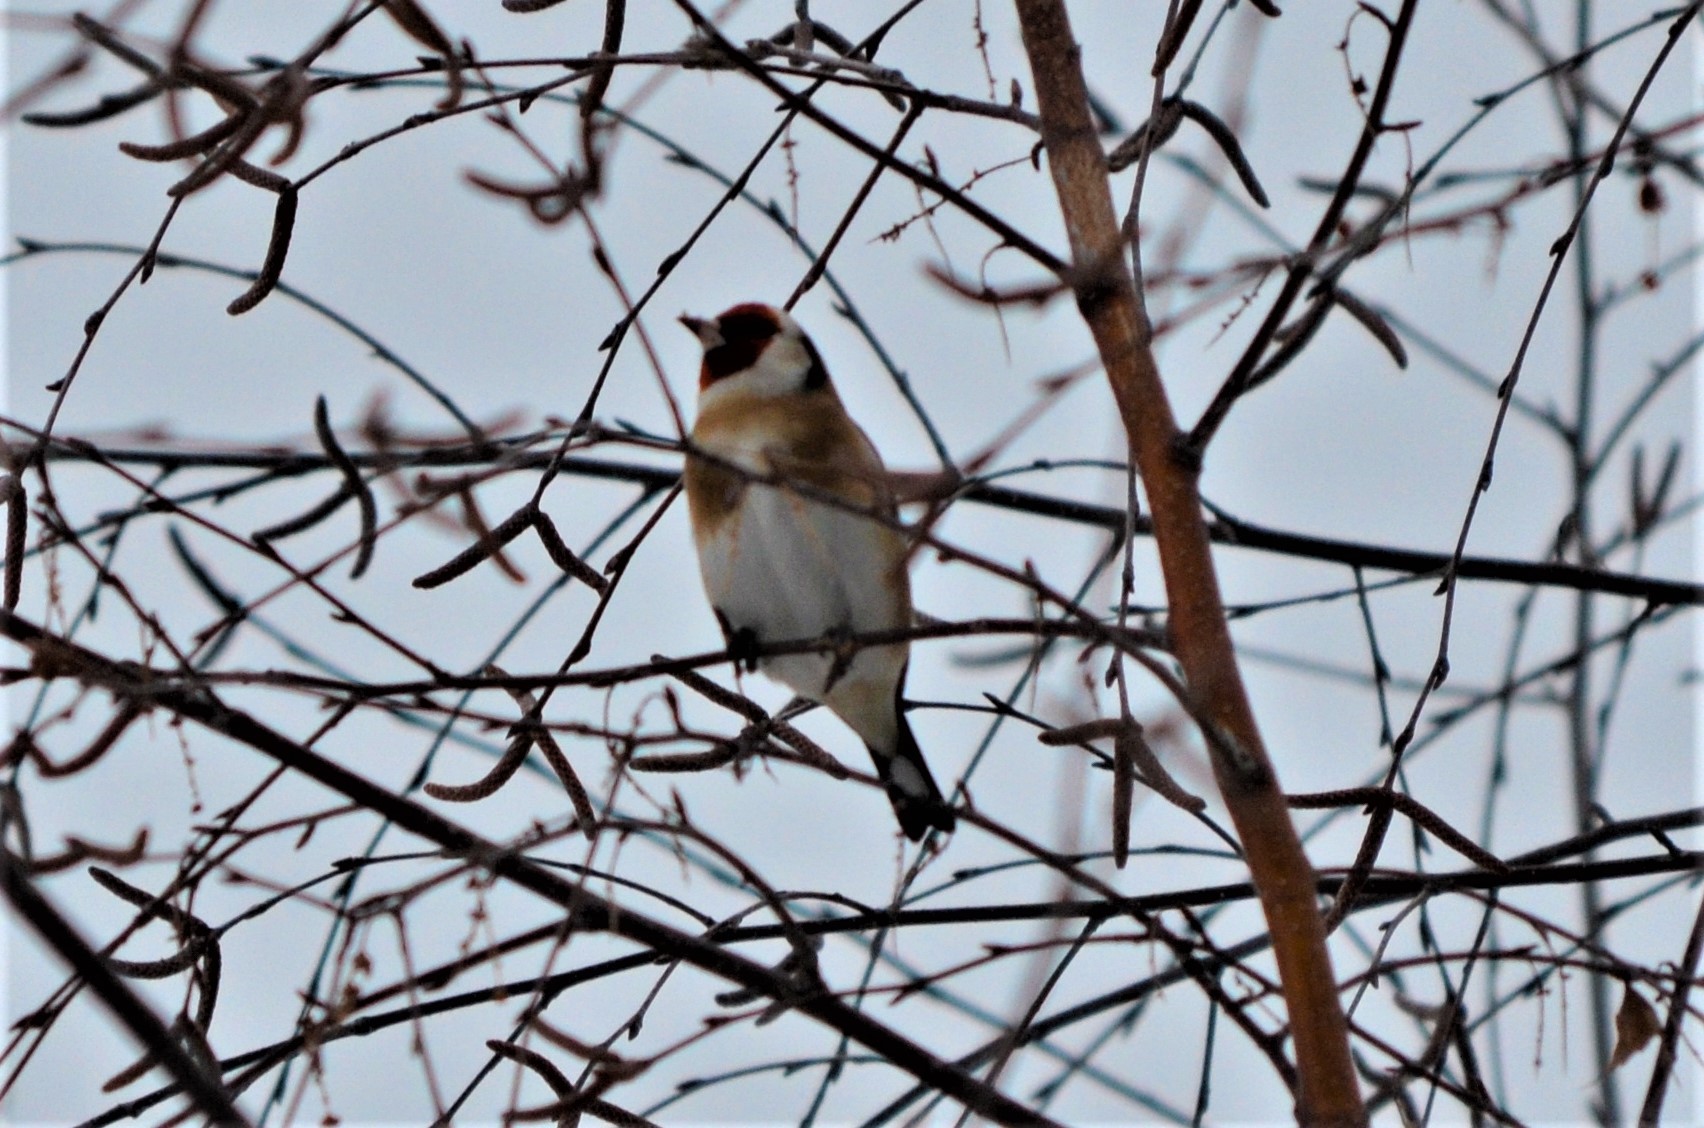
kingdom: Animalia
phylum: Chordata
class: Aves
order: Passeriformes
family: Fringillidae
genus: Carduelis
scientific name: Carduelis carduelis
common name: European goldfinch
